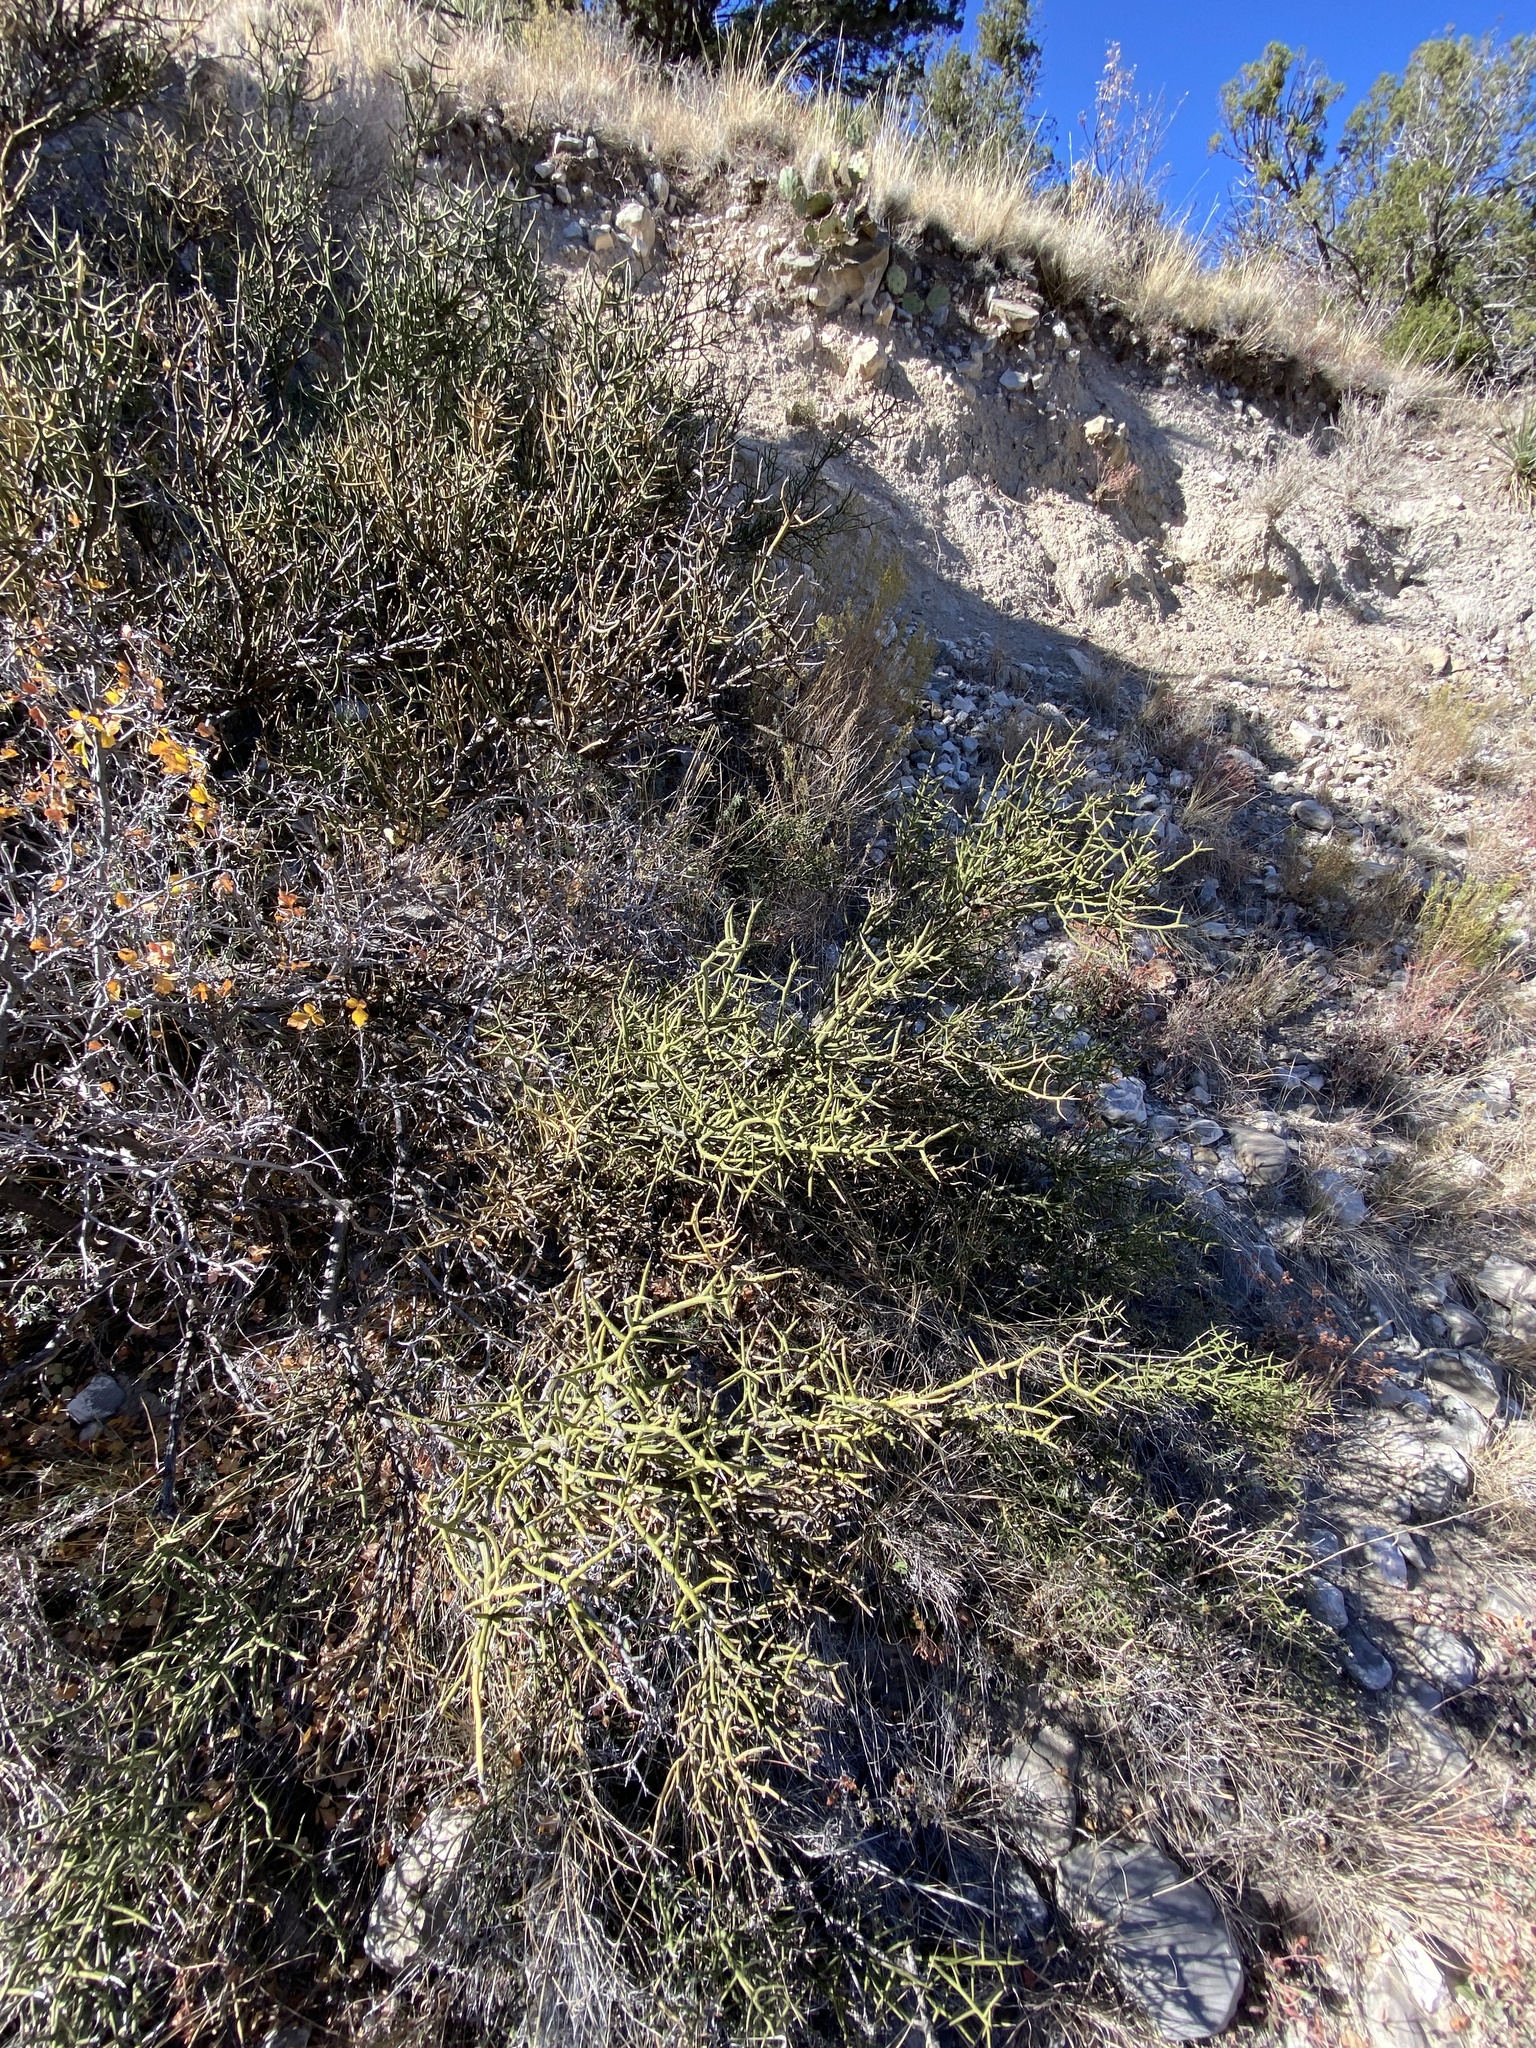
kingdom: Plantae
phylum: Tracheophyta
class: Magnoliopsida
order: Brassicales
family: Koeberliniaceae
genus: Koeberlinia
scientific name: Koeberlinia spinosa
